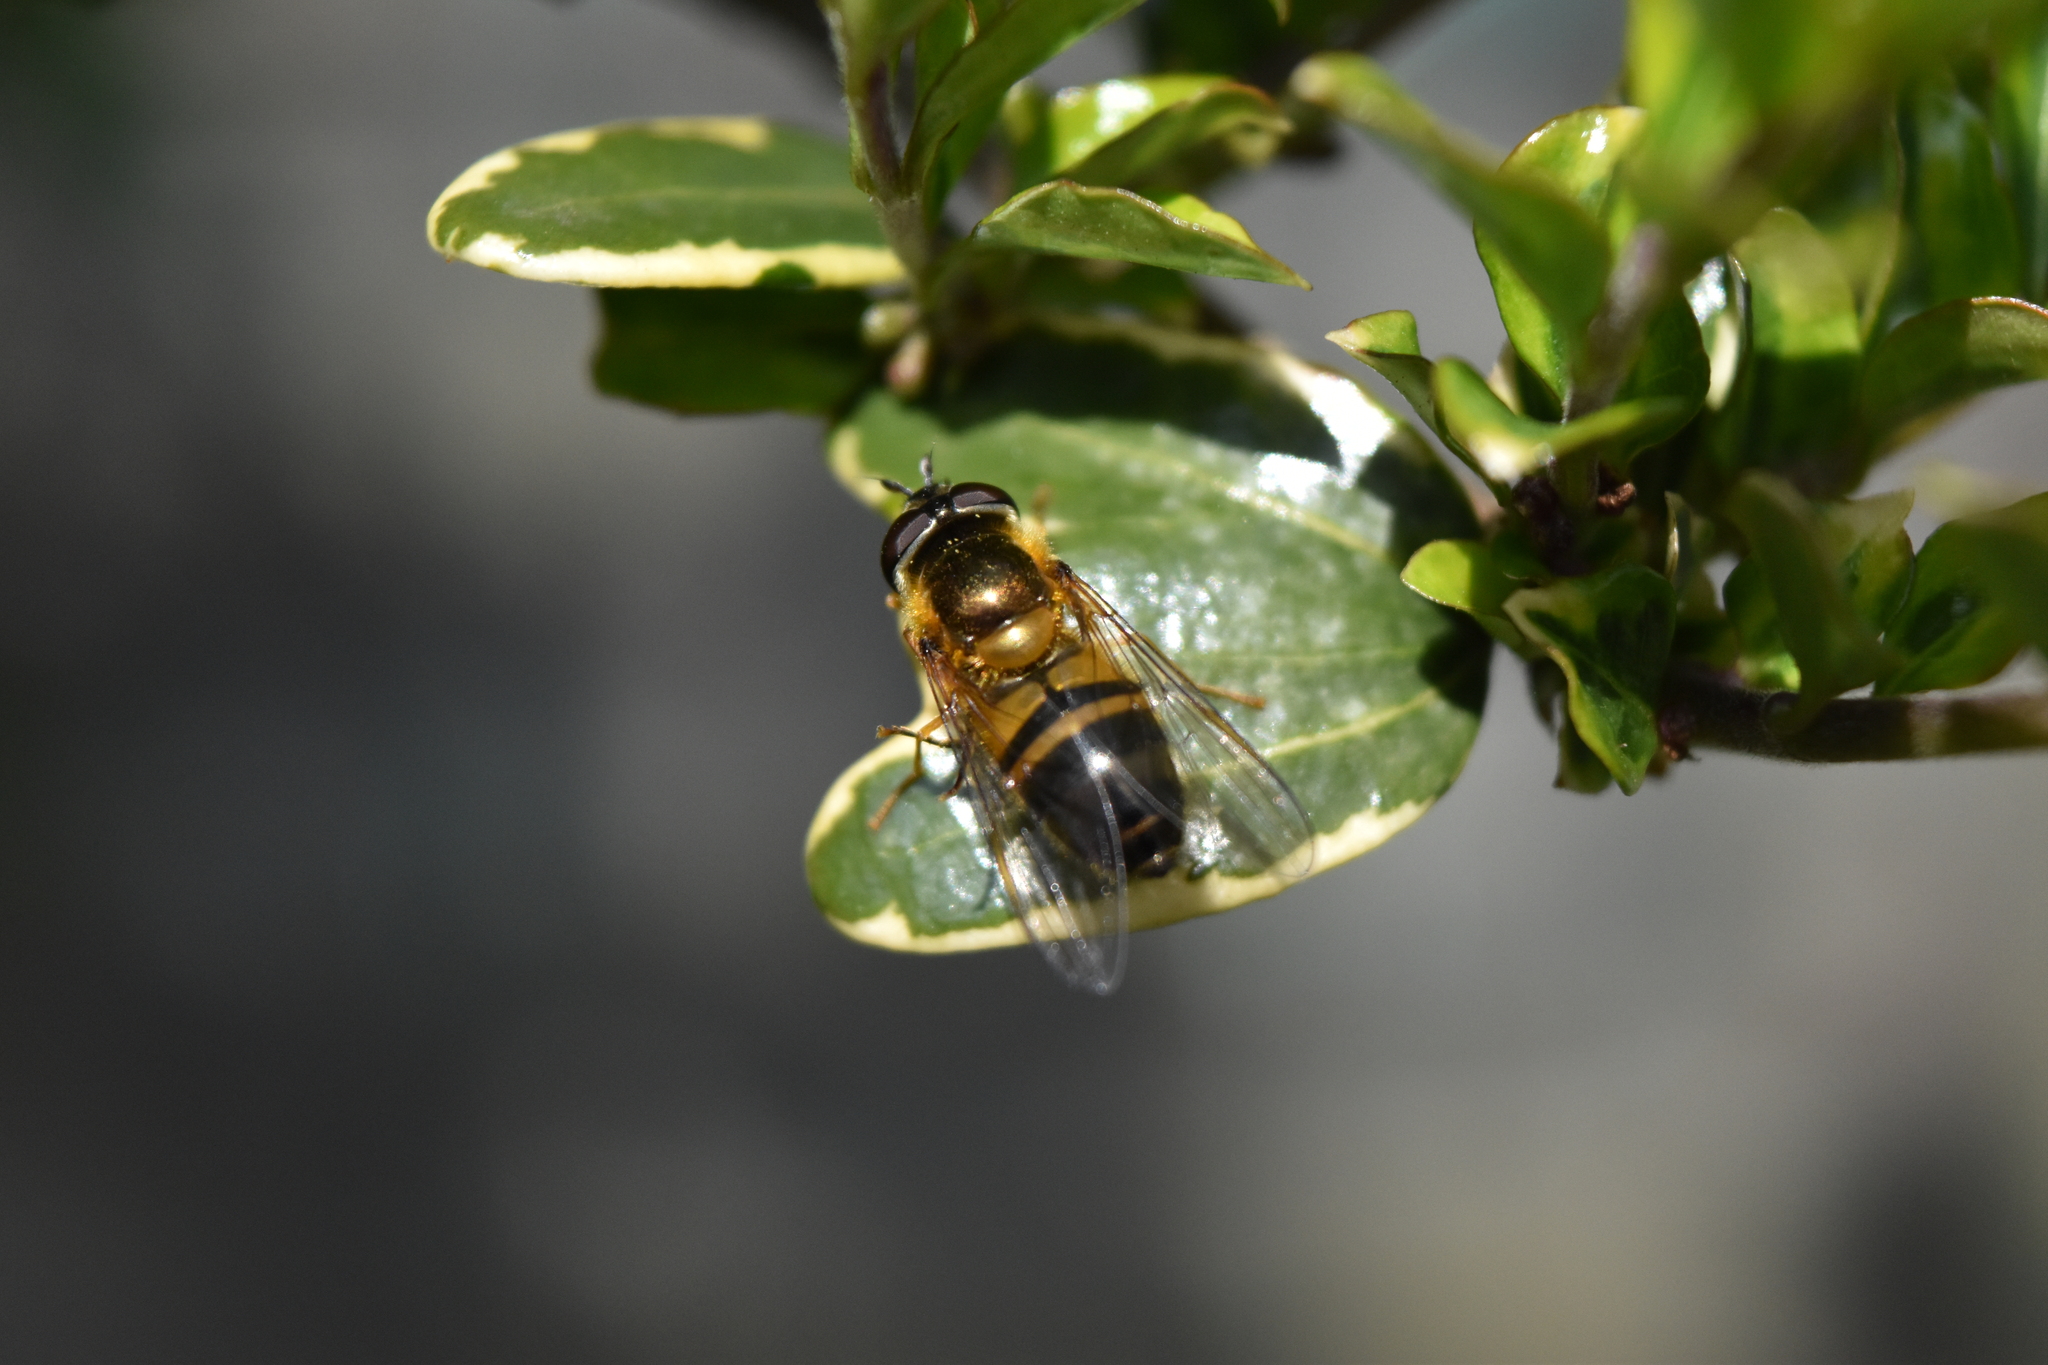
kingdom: Animalia
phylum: Arthropoda
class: Insecta
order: Diptera
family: Syrphidae
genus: Epistrophe
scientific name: Epistrophe eligans
